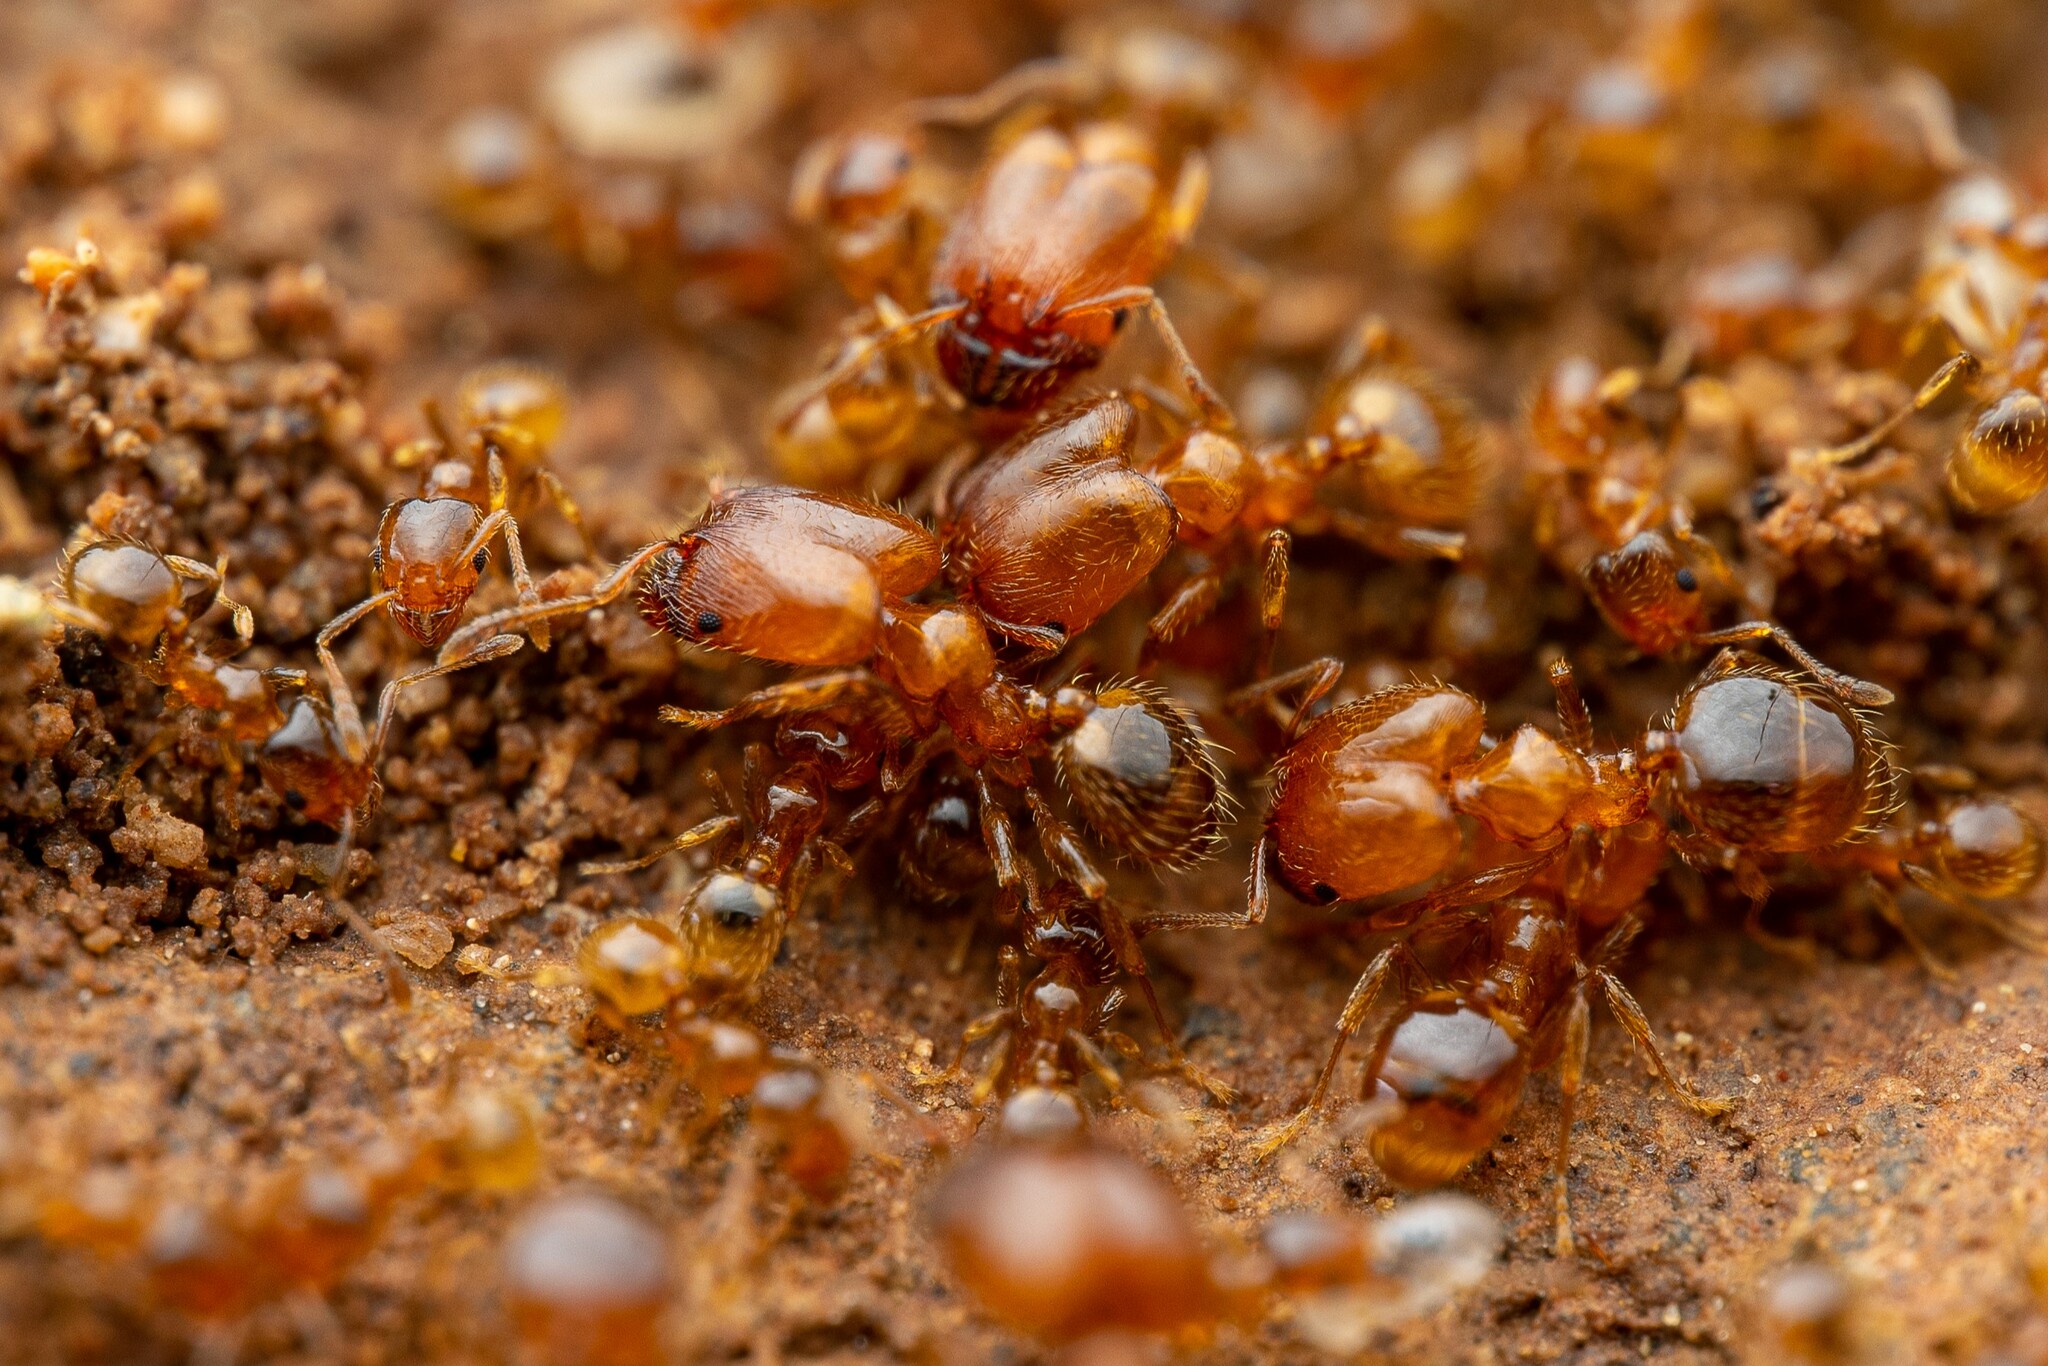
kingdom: Animalia
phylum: Arthropoda
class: Insecta
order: Hymenoptera
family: Formicidae
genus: Pheidole
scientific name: Pheidole
